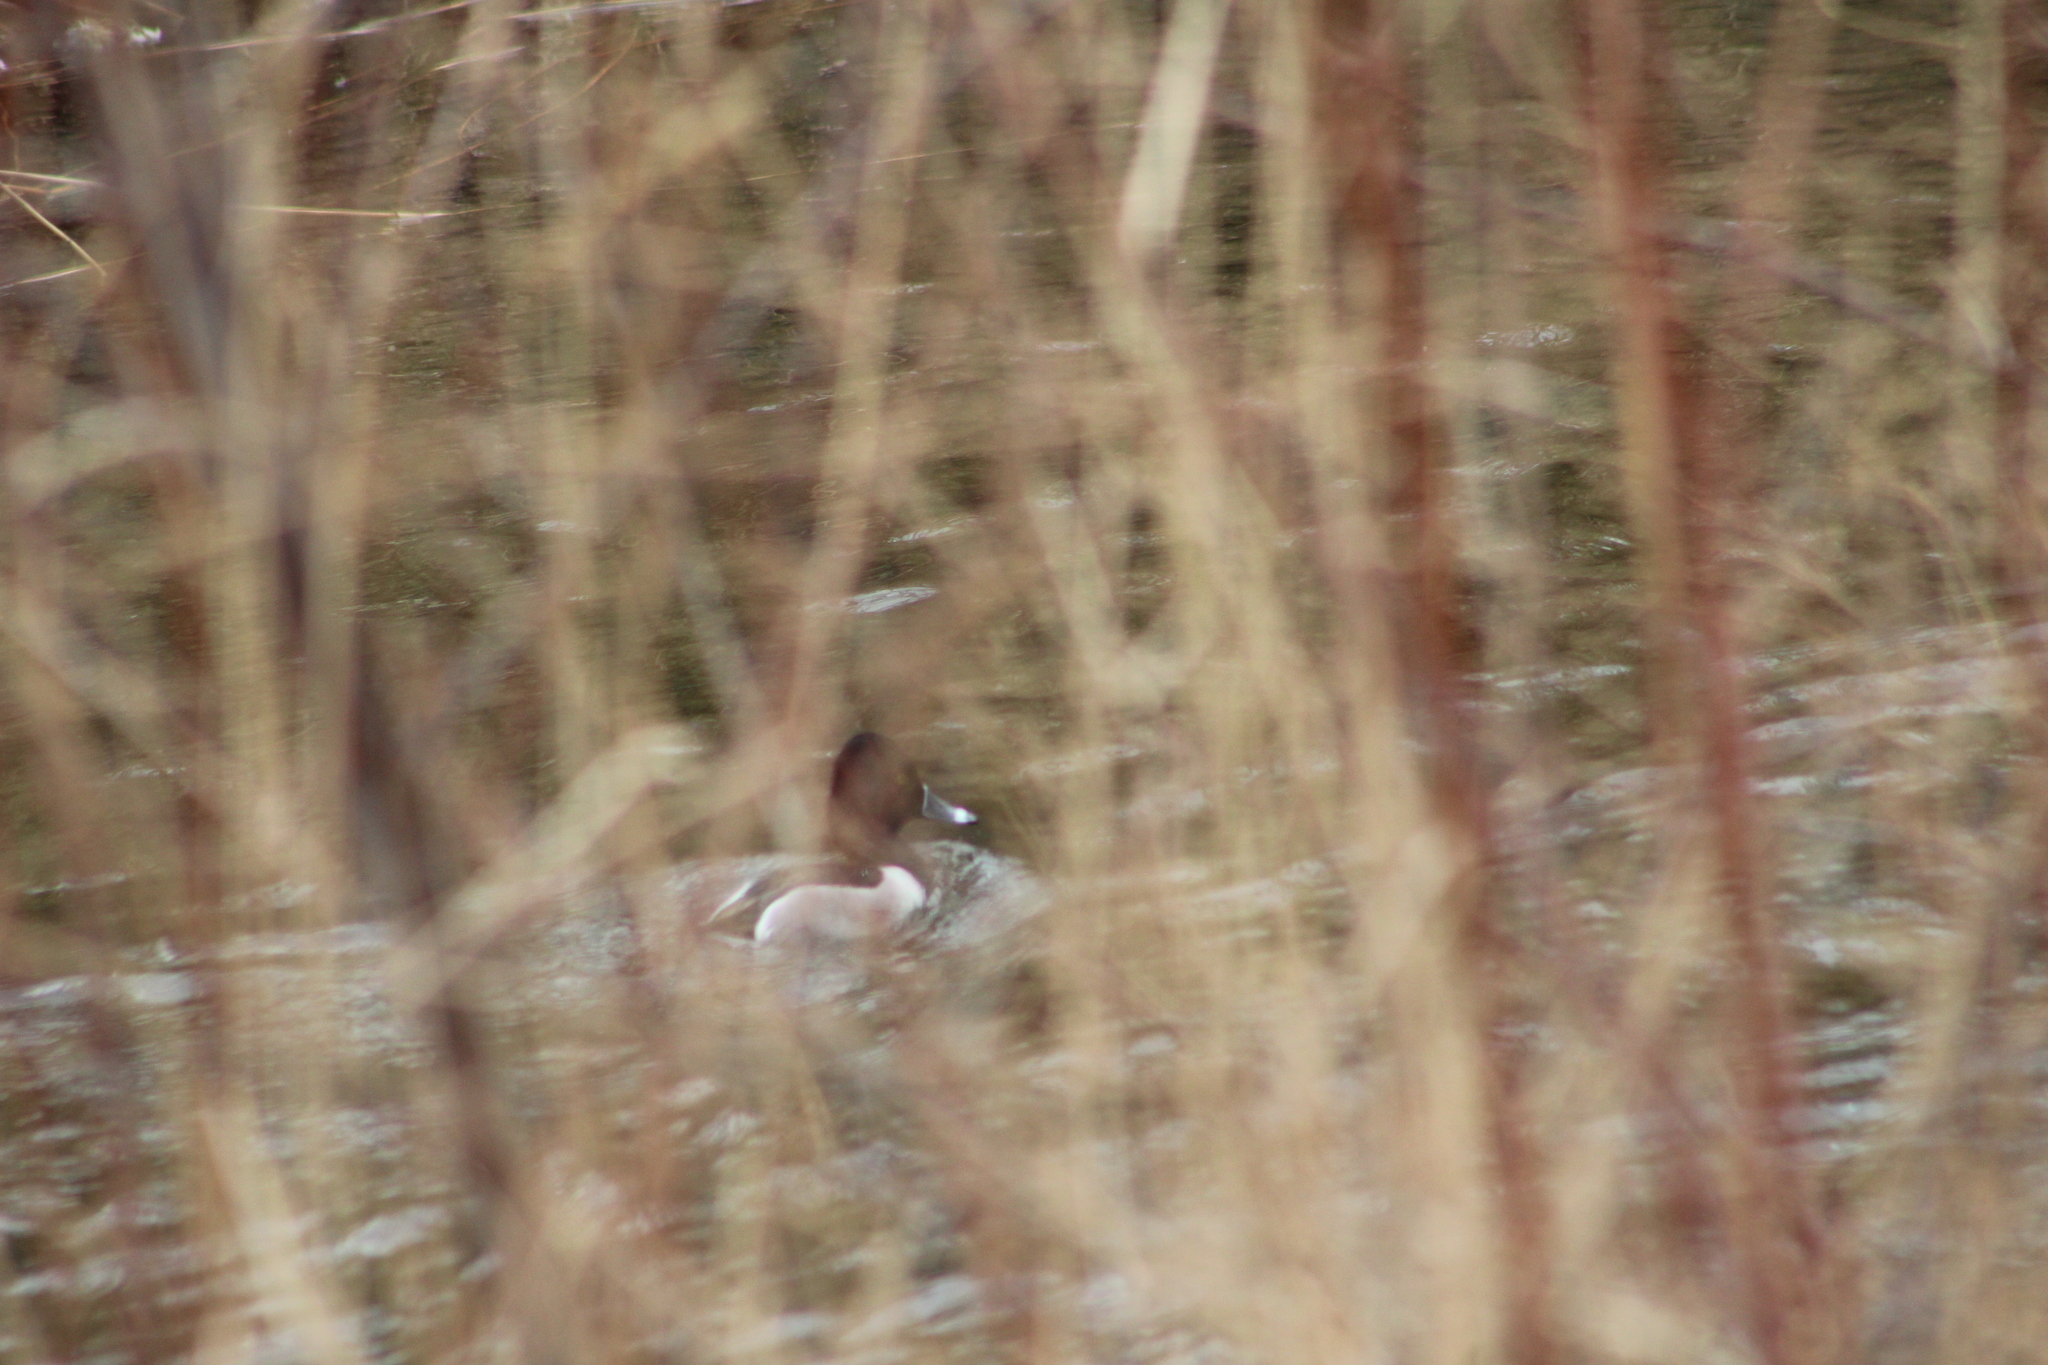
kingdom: Animalia
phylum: Chordata
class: Aves
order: Anseriformes
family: Anatidae
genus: Aythya
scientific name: Aythya collaris
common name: Ring-necked duck
